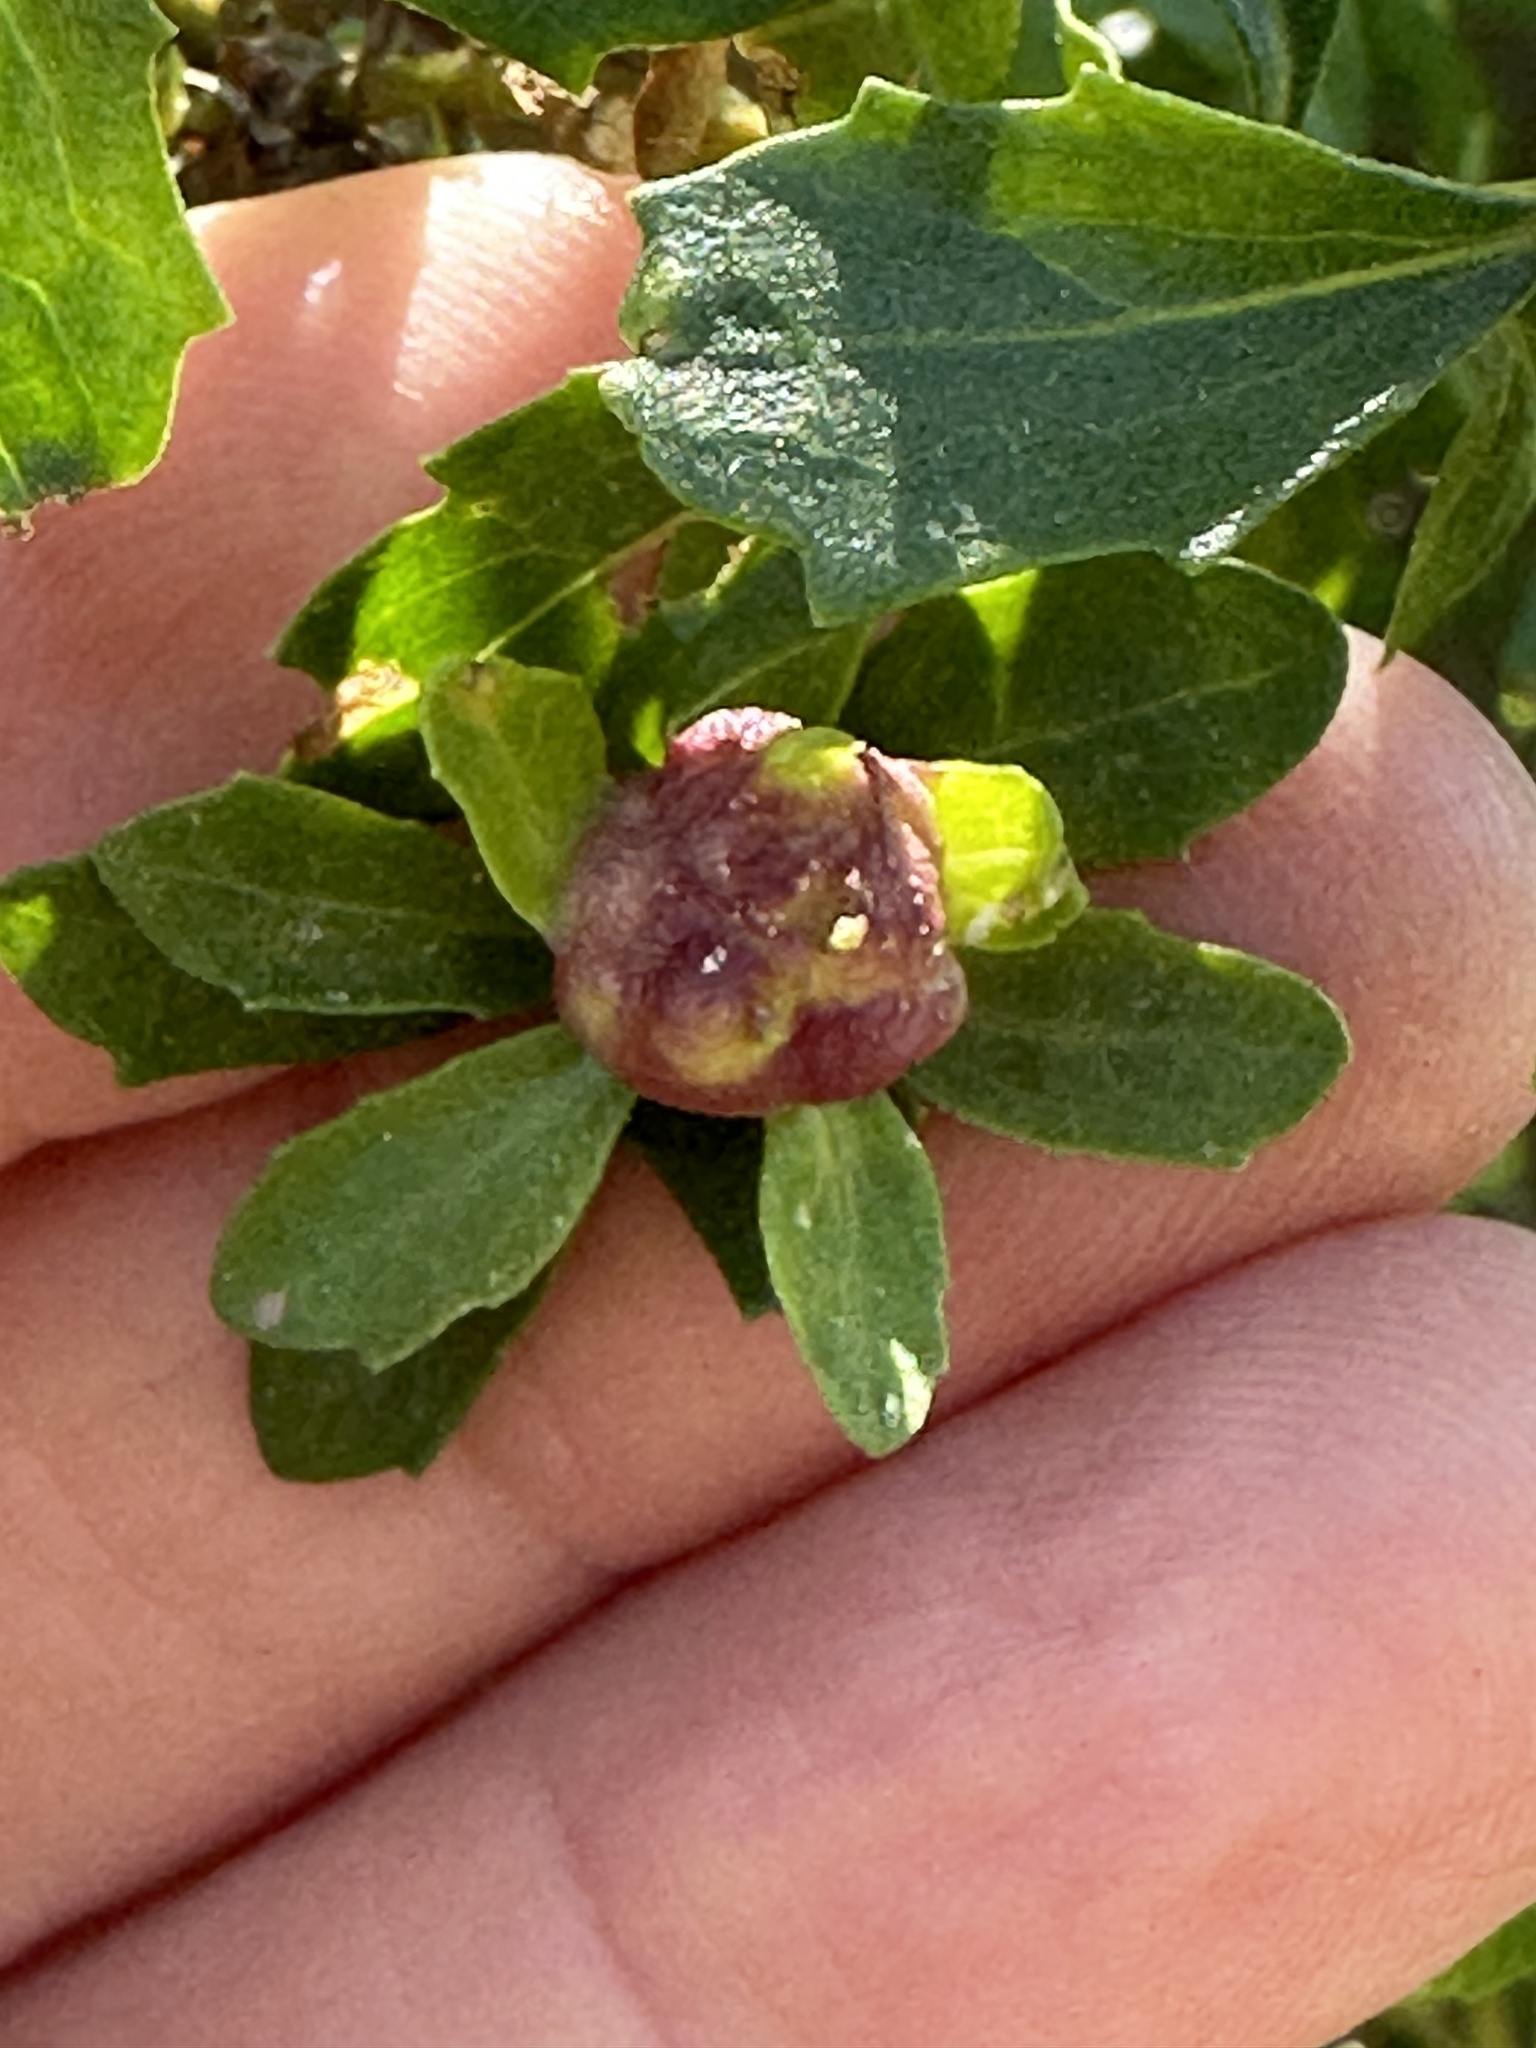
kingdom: Animalia
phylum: Arthropoda
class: Insecta
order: Diptera
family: Cecidomyiidae
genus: Rhopalomyia
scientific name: Rhopalomyia californica
